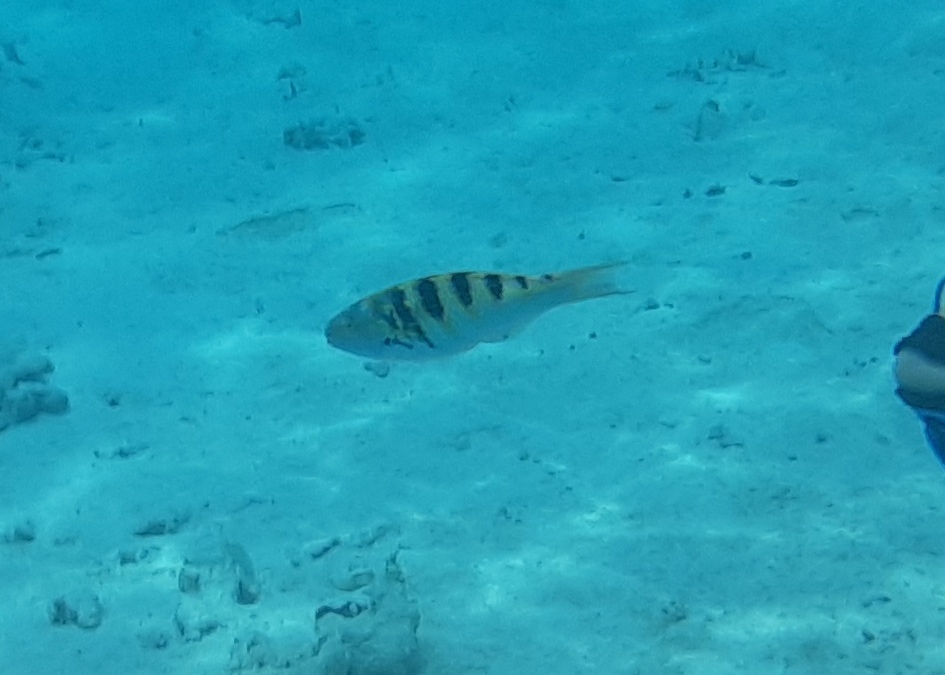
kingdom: Animalia
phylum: Chordata
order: Perciformes
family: Labridae
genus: Thalassoma
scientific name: Thalassoma hardwicke
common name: Sixbar wrasse
